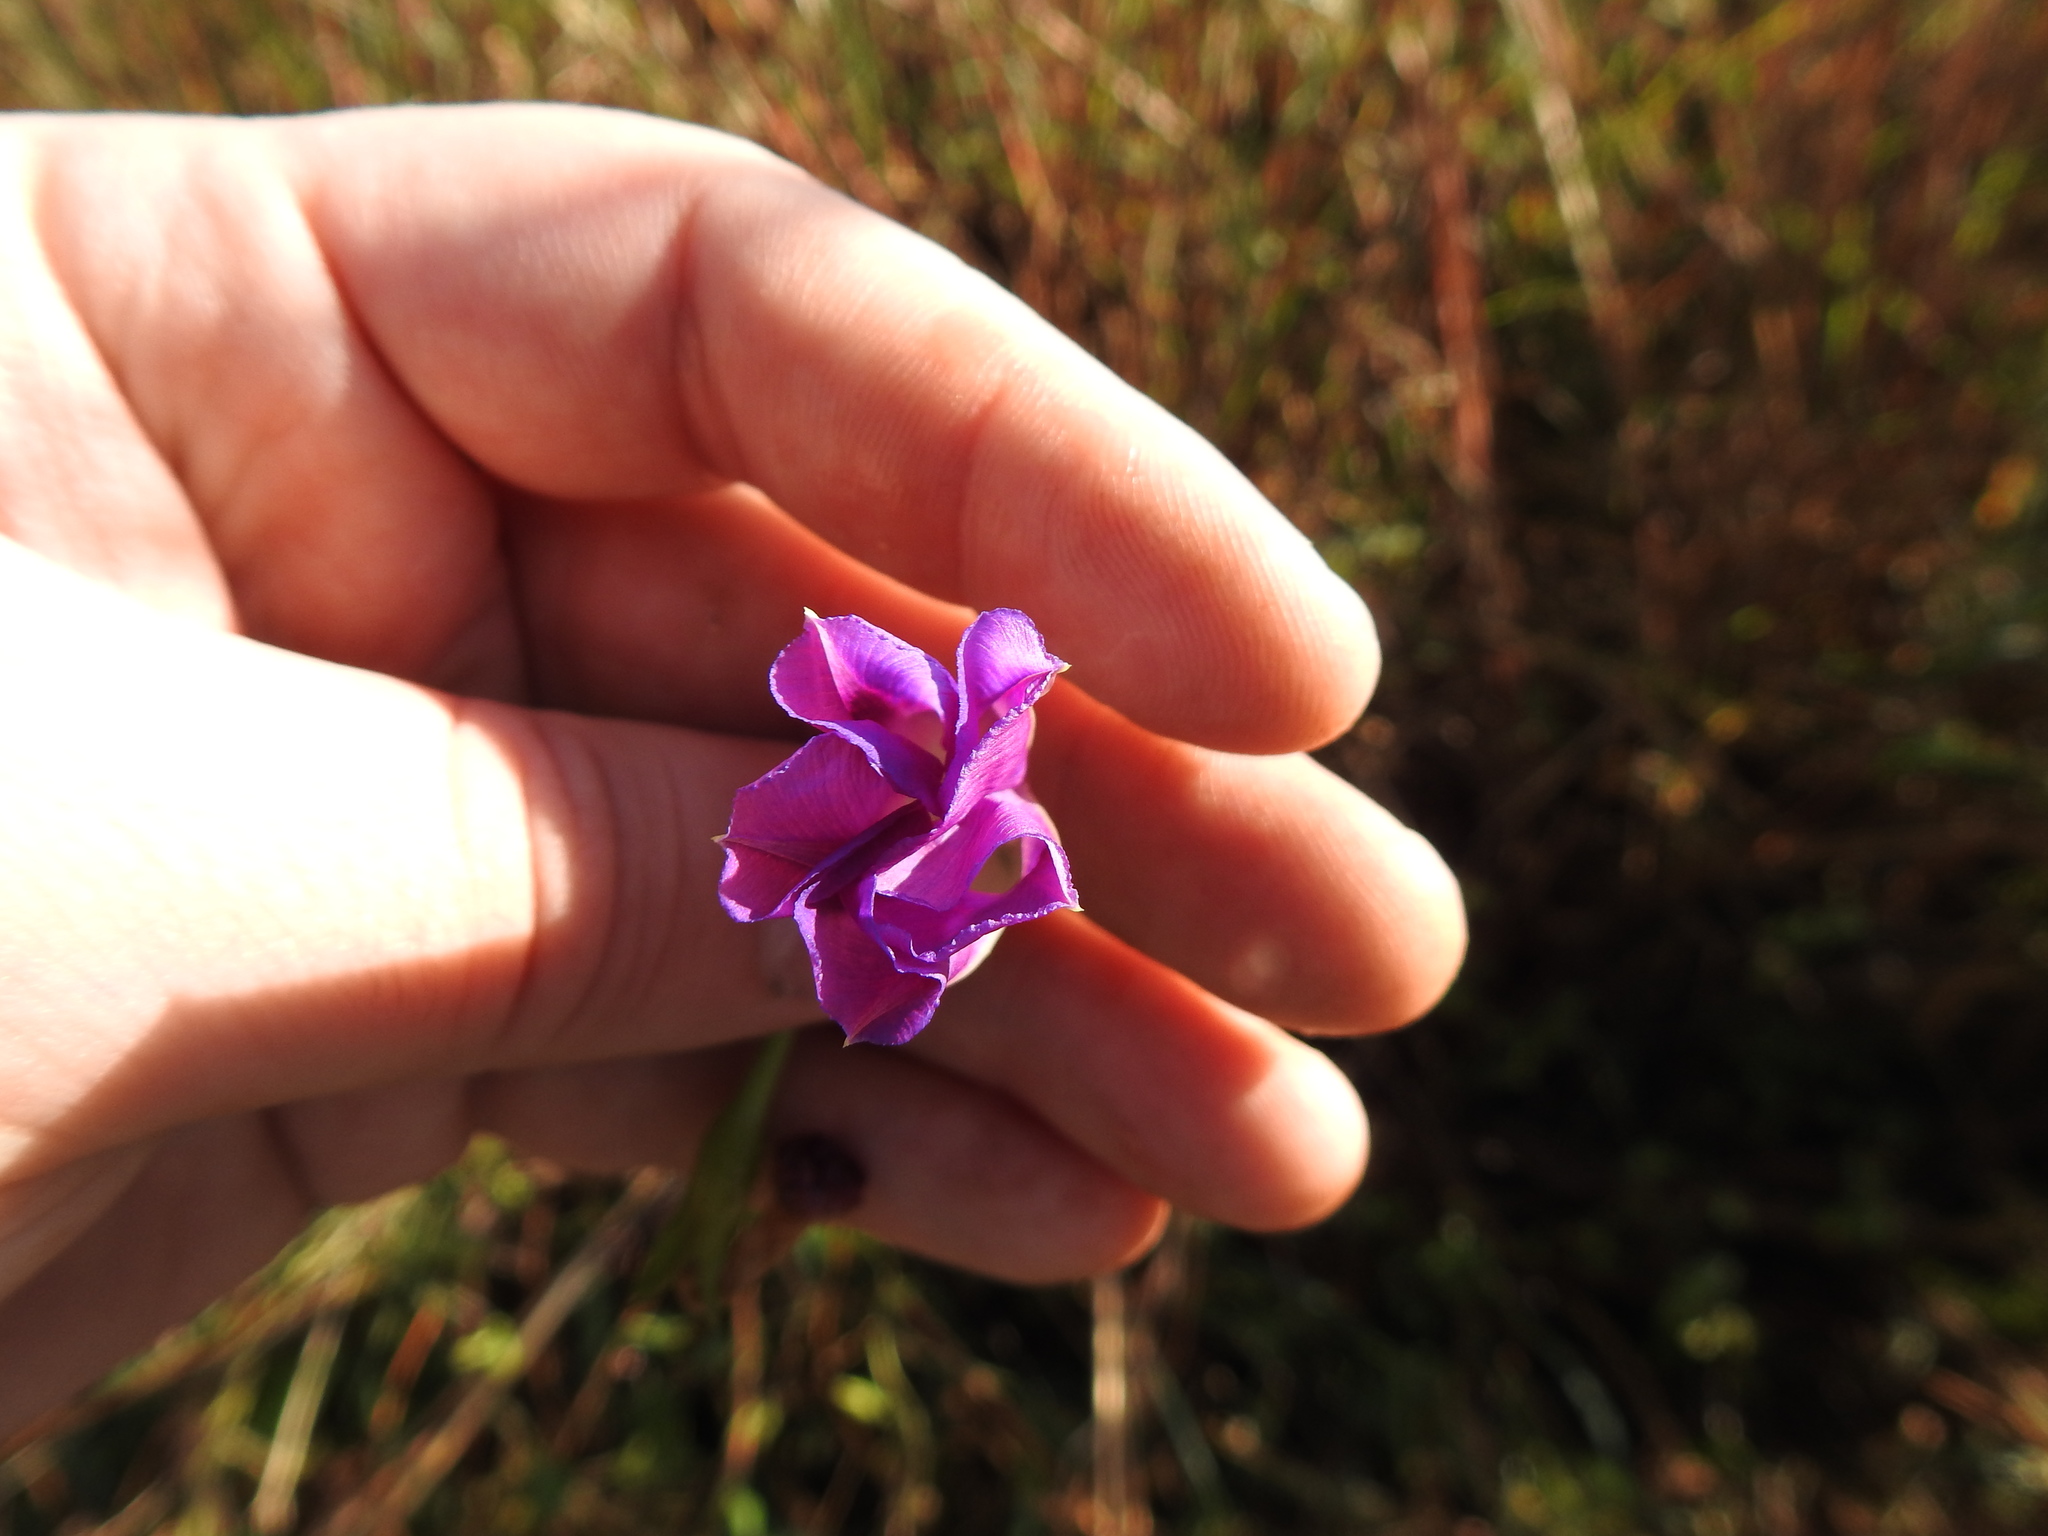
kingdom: Plantae
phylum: Tracheophyta
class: Magnoliopsida
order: Solanales
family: Convolvulaceae
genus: Ipomoea
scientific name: Ipomoea purpurea
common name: Common morning-glory
